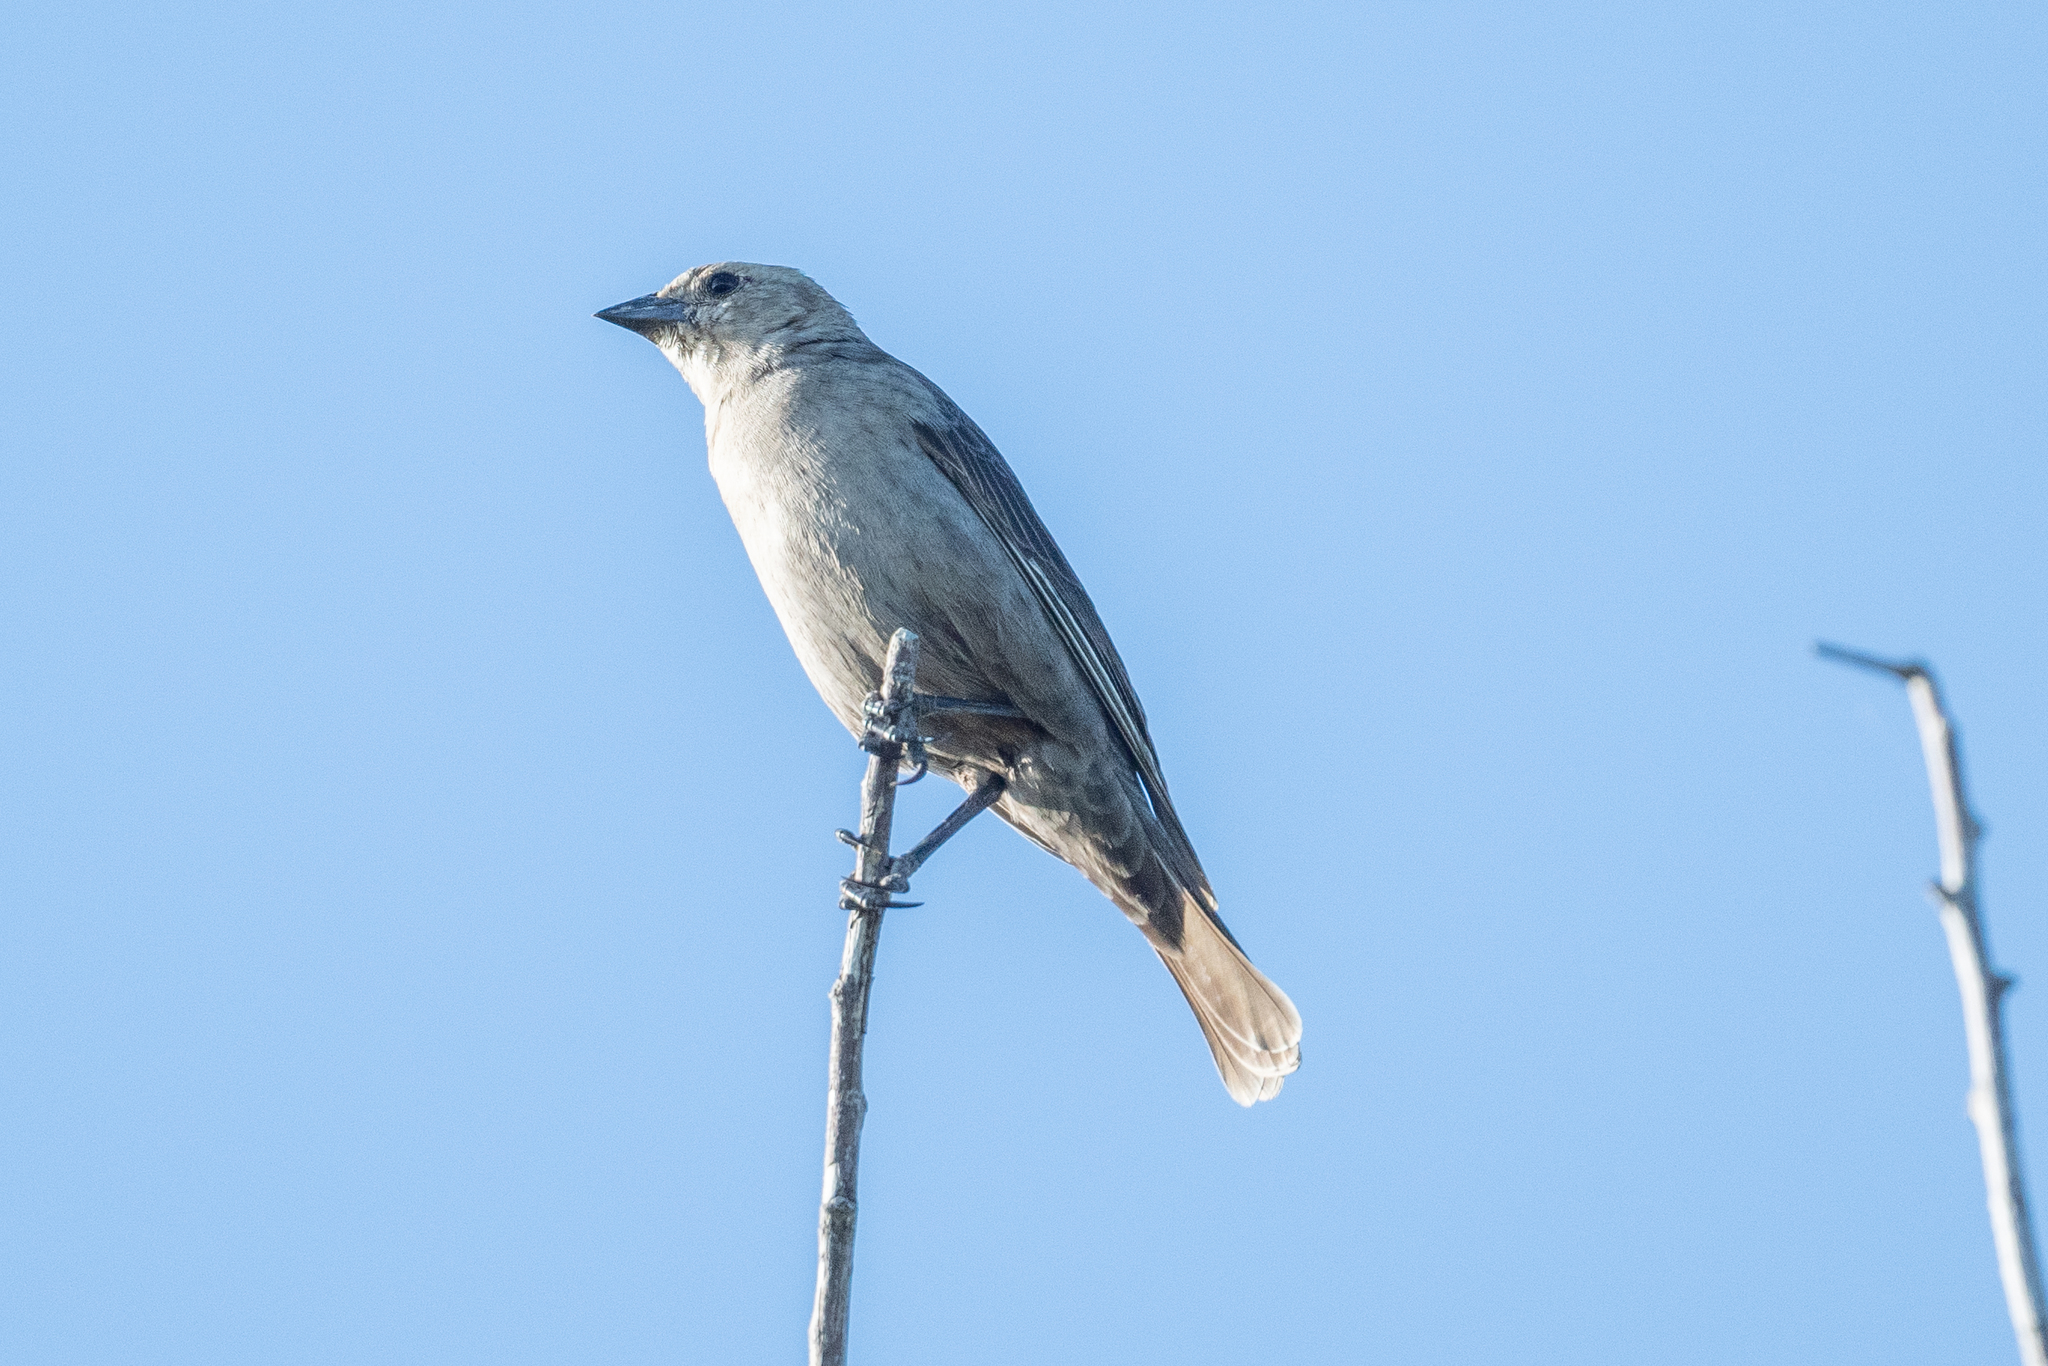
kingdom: Animalia
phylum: Chordata
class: Aves
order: Passeriformes
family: Icteridae
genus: Molothrus
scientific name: Molothrus ater
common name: Brown-headed cowbird
